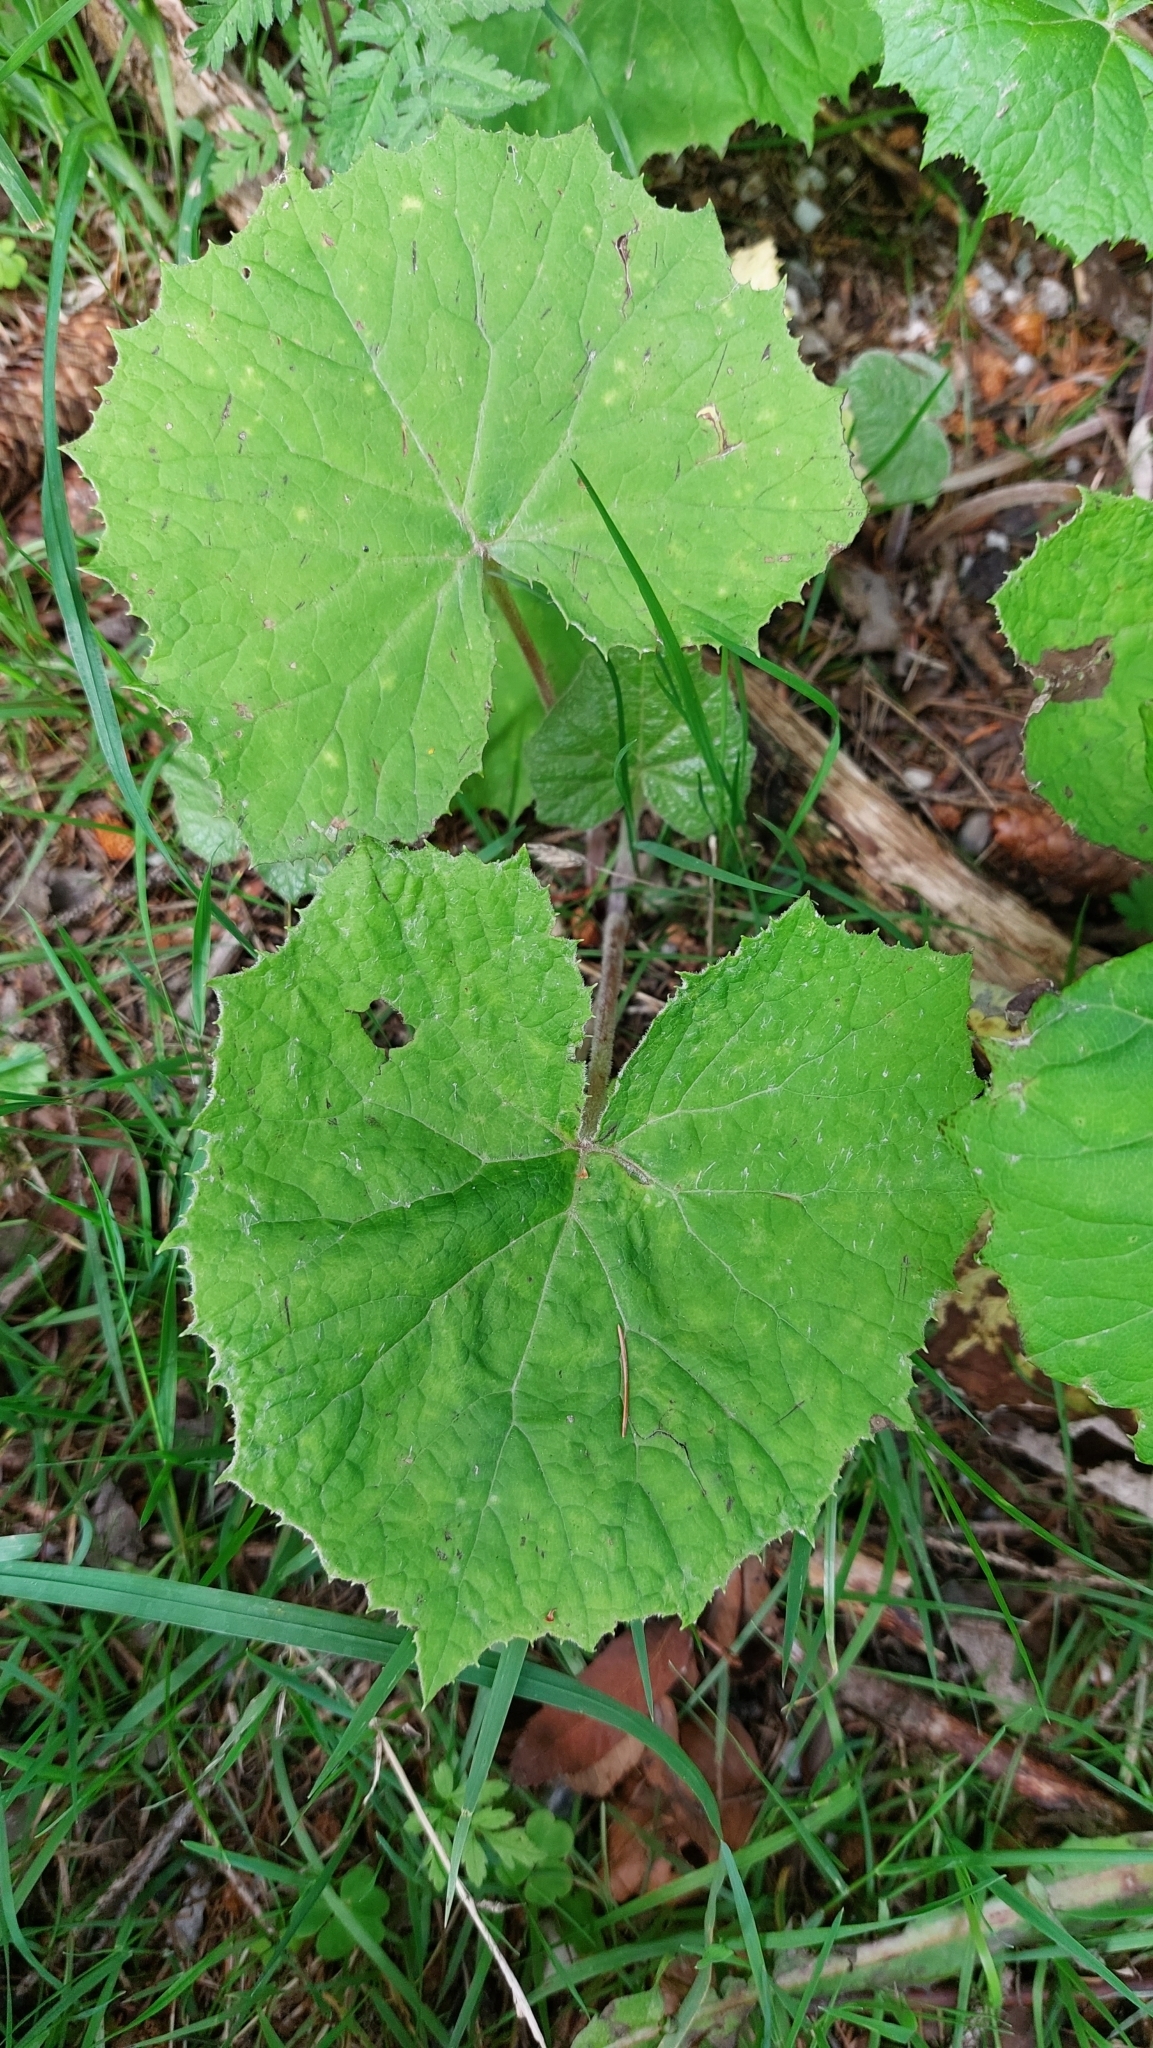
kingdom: Plantae
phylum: Tracheophyta
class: Magnoliopsida
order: Asterales
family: Asteraceae
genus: Petasites
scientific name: Petasites albus
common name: White butterbur
